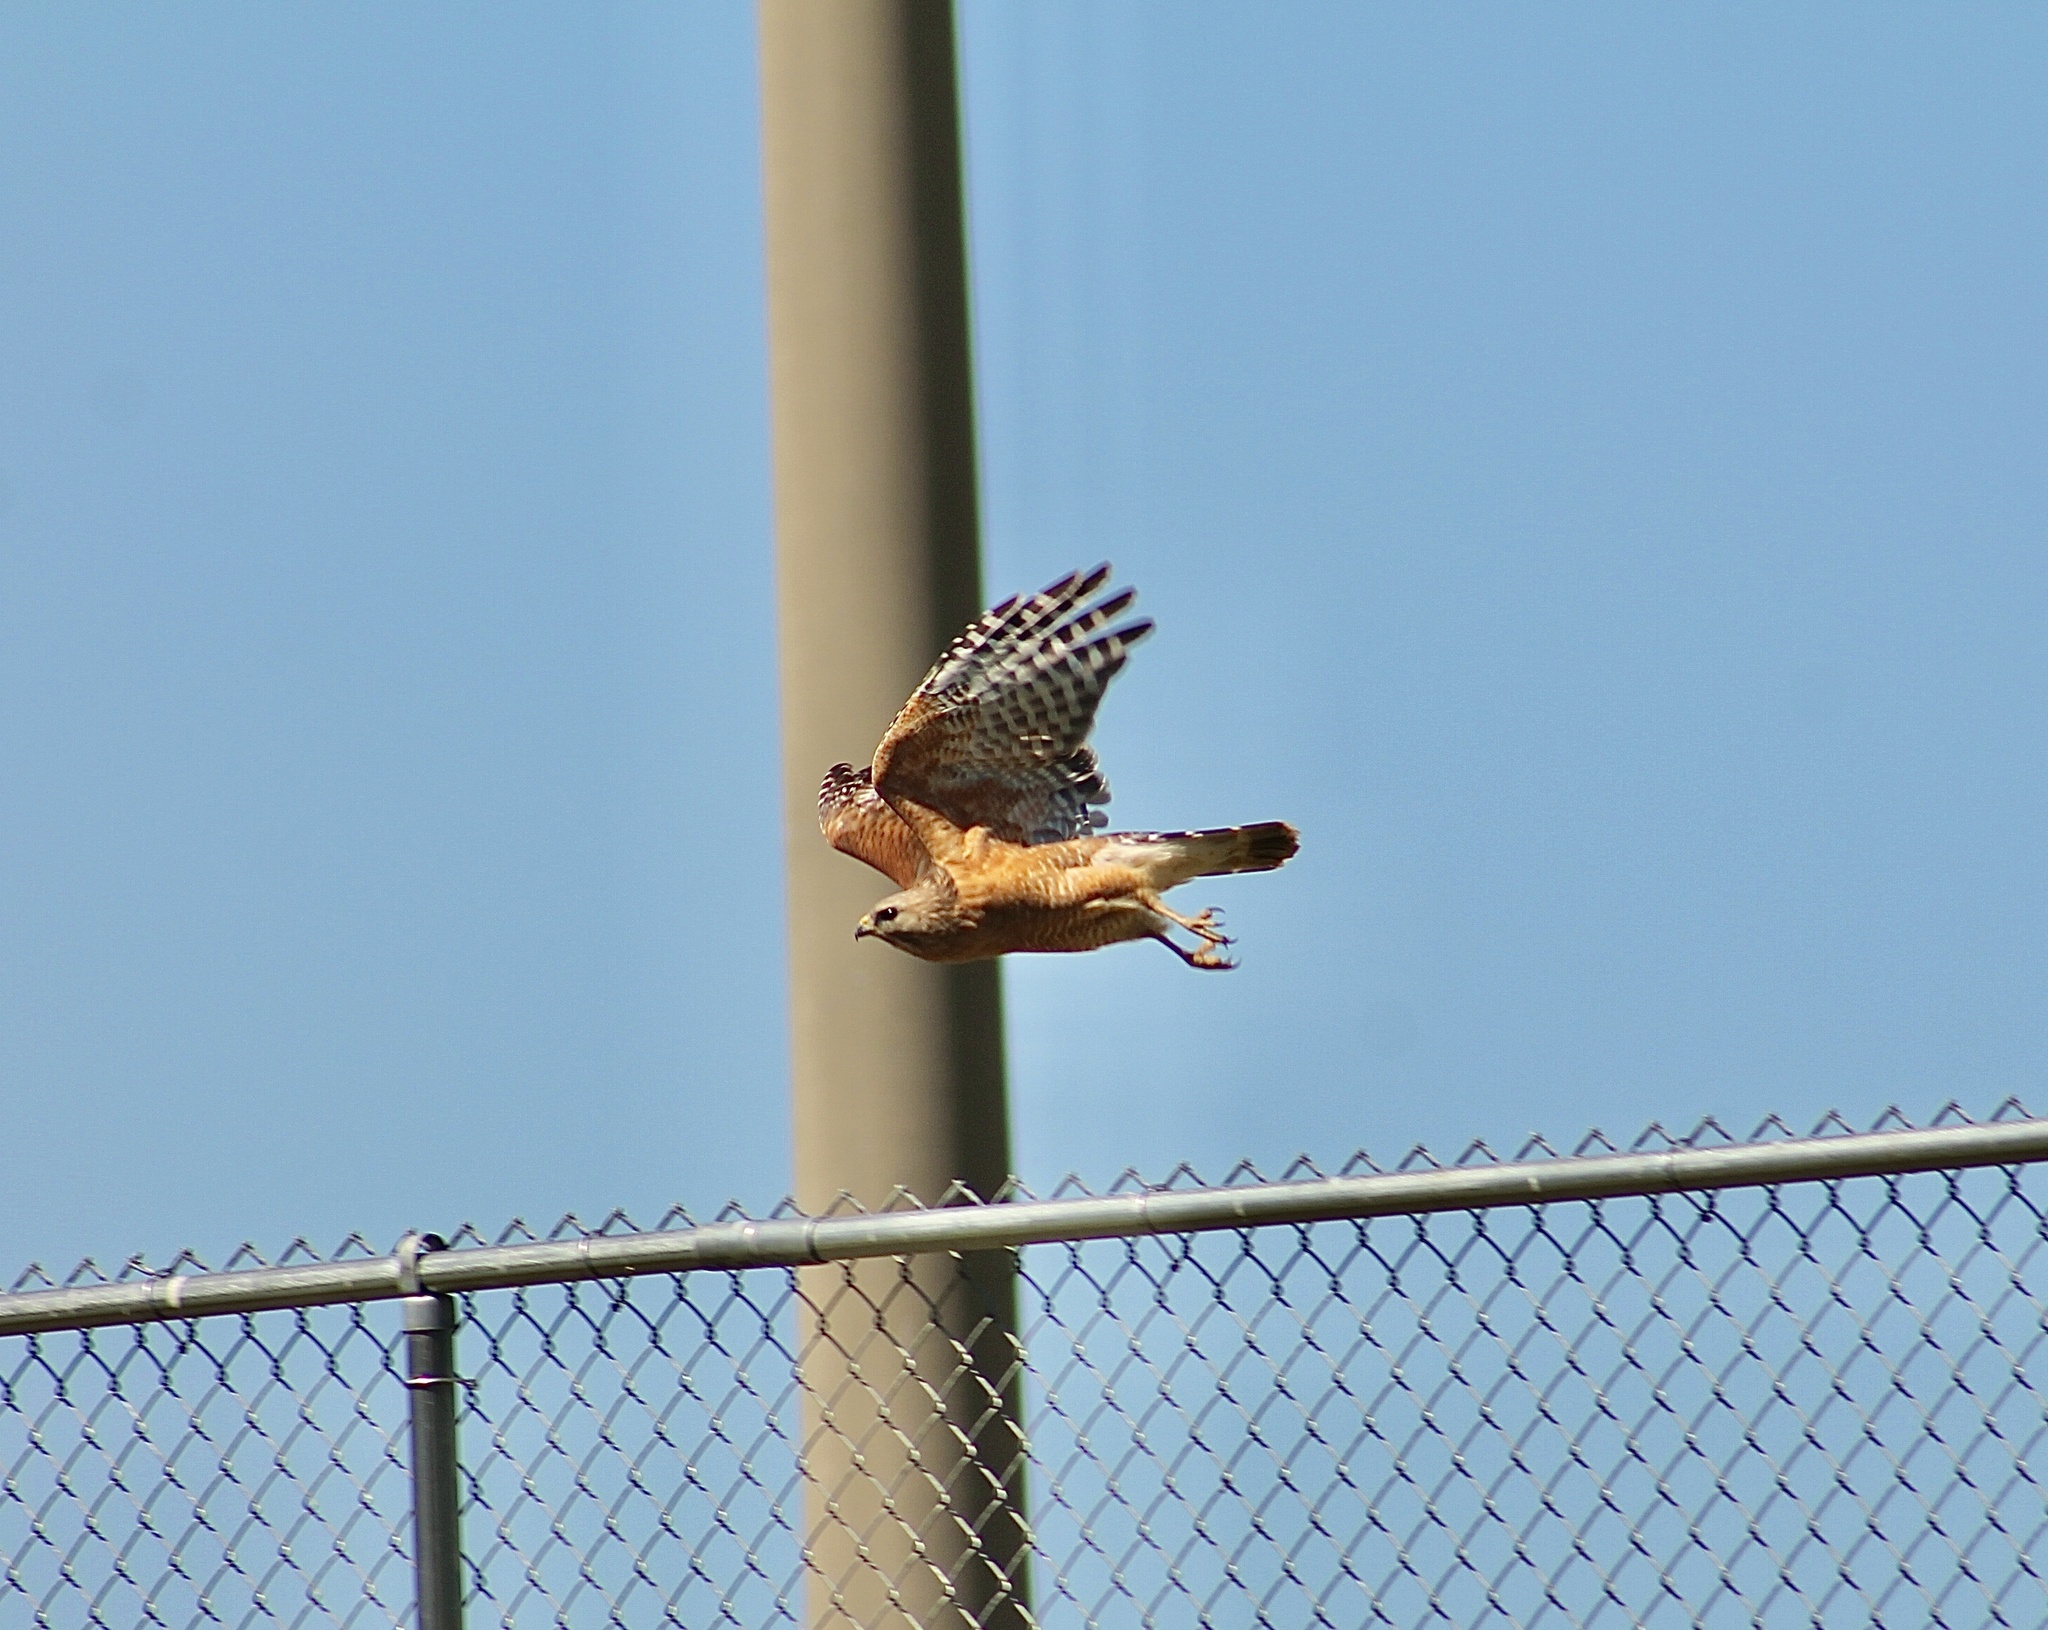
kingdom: Animalia
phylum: Chordata
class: Aves
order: Accipitriformes
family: Accipitridae
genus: Buteo
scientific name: Buteo lineatus
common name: Red-shouldered hawk
